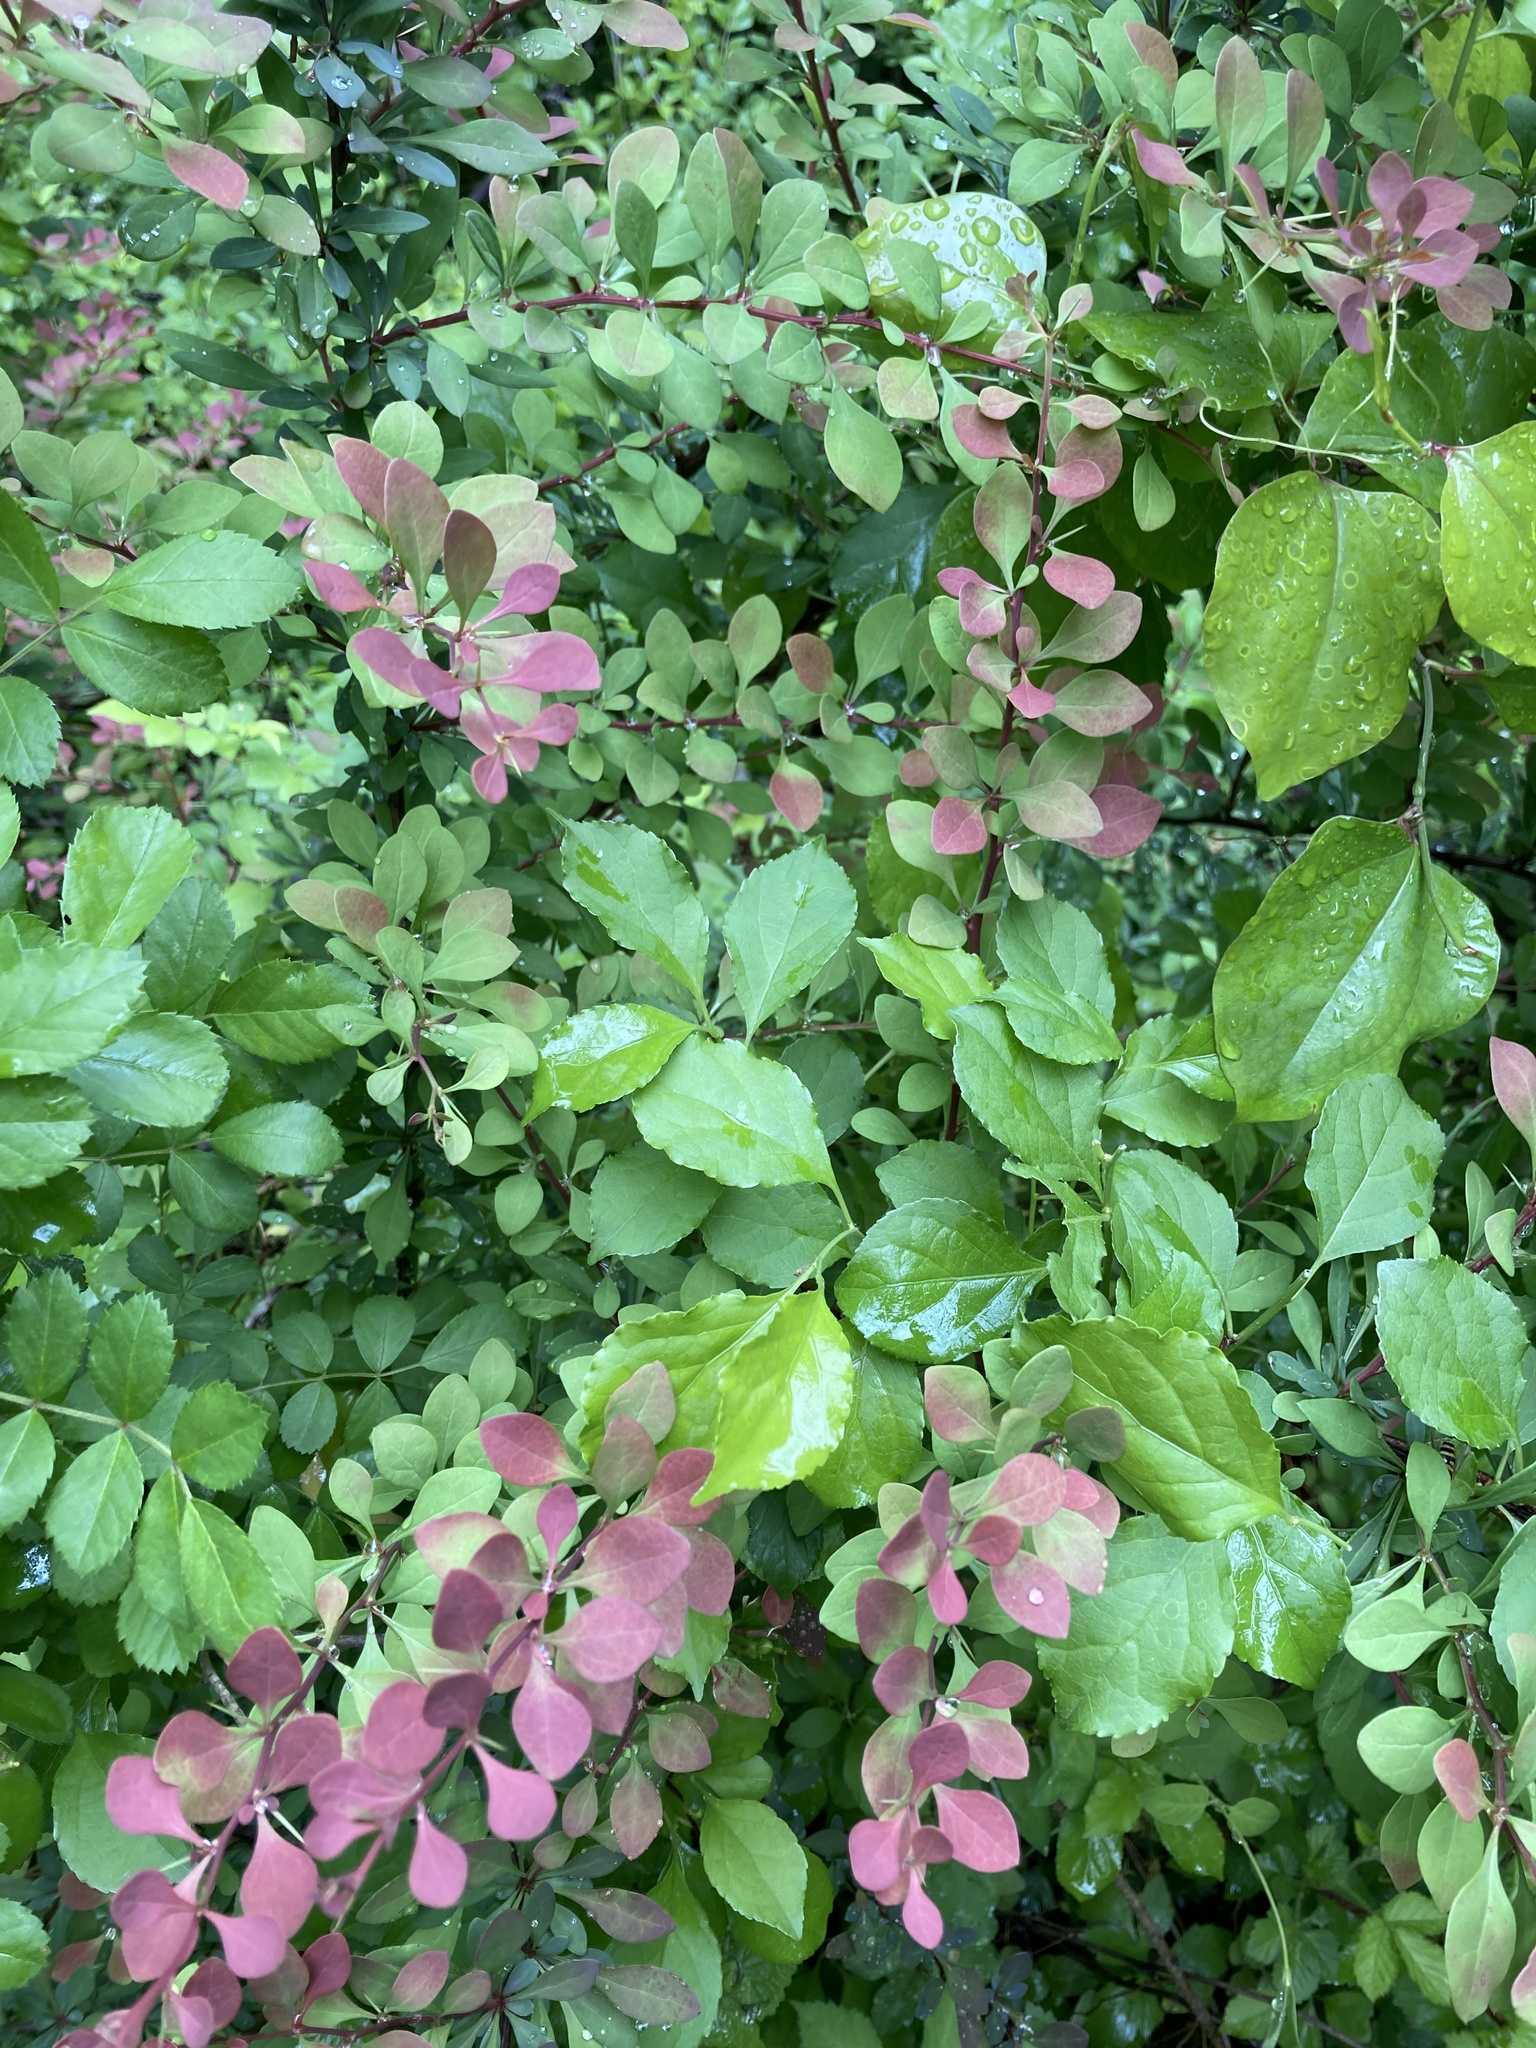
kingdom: Plantae
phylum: Tracheophyta
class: Magnoliopsida
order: Ranunculales
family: Berberidaceae
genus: Berberis
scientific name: Berberis thunbergii
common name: Japanese barberry
